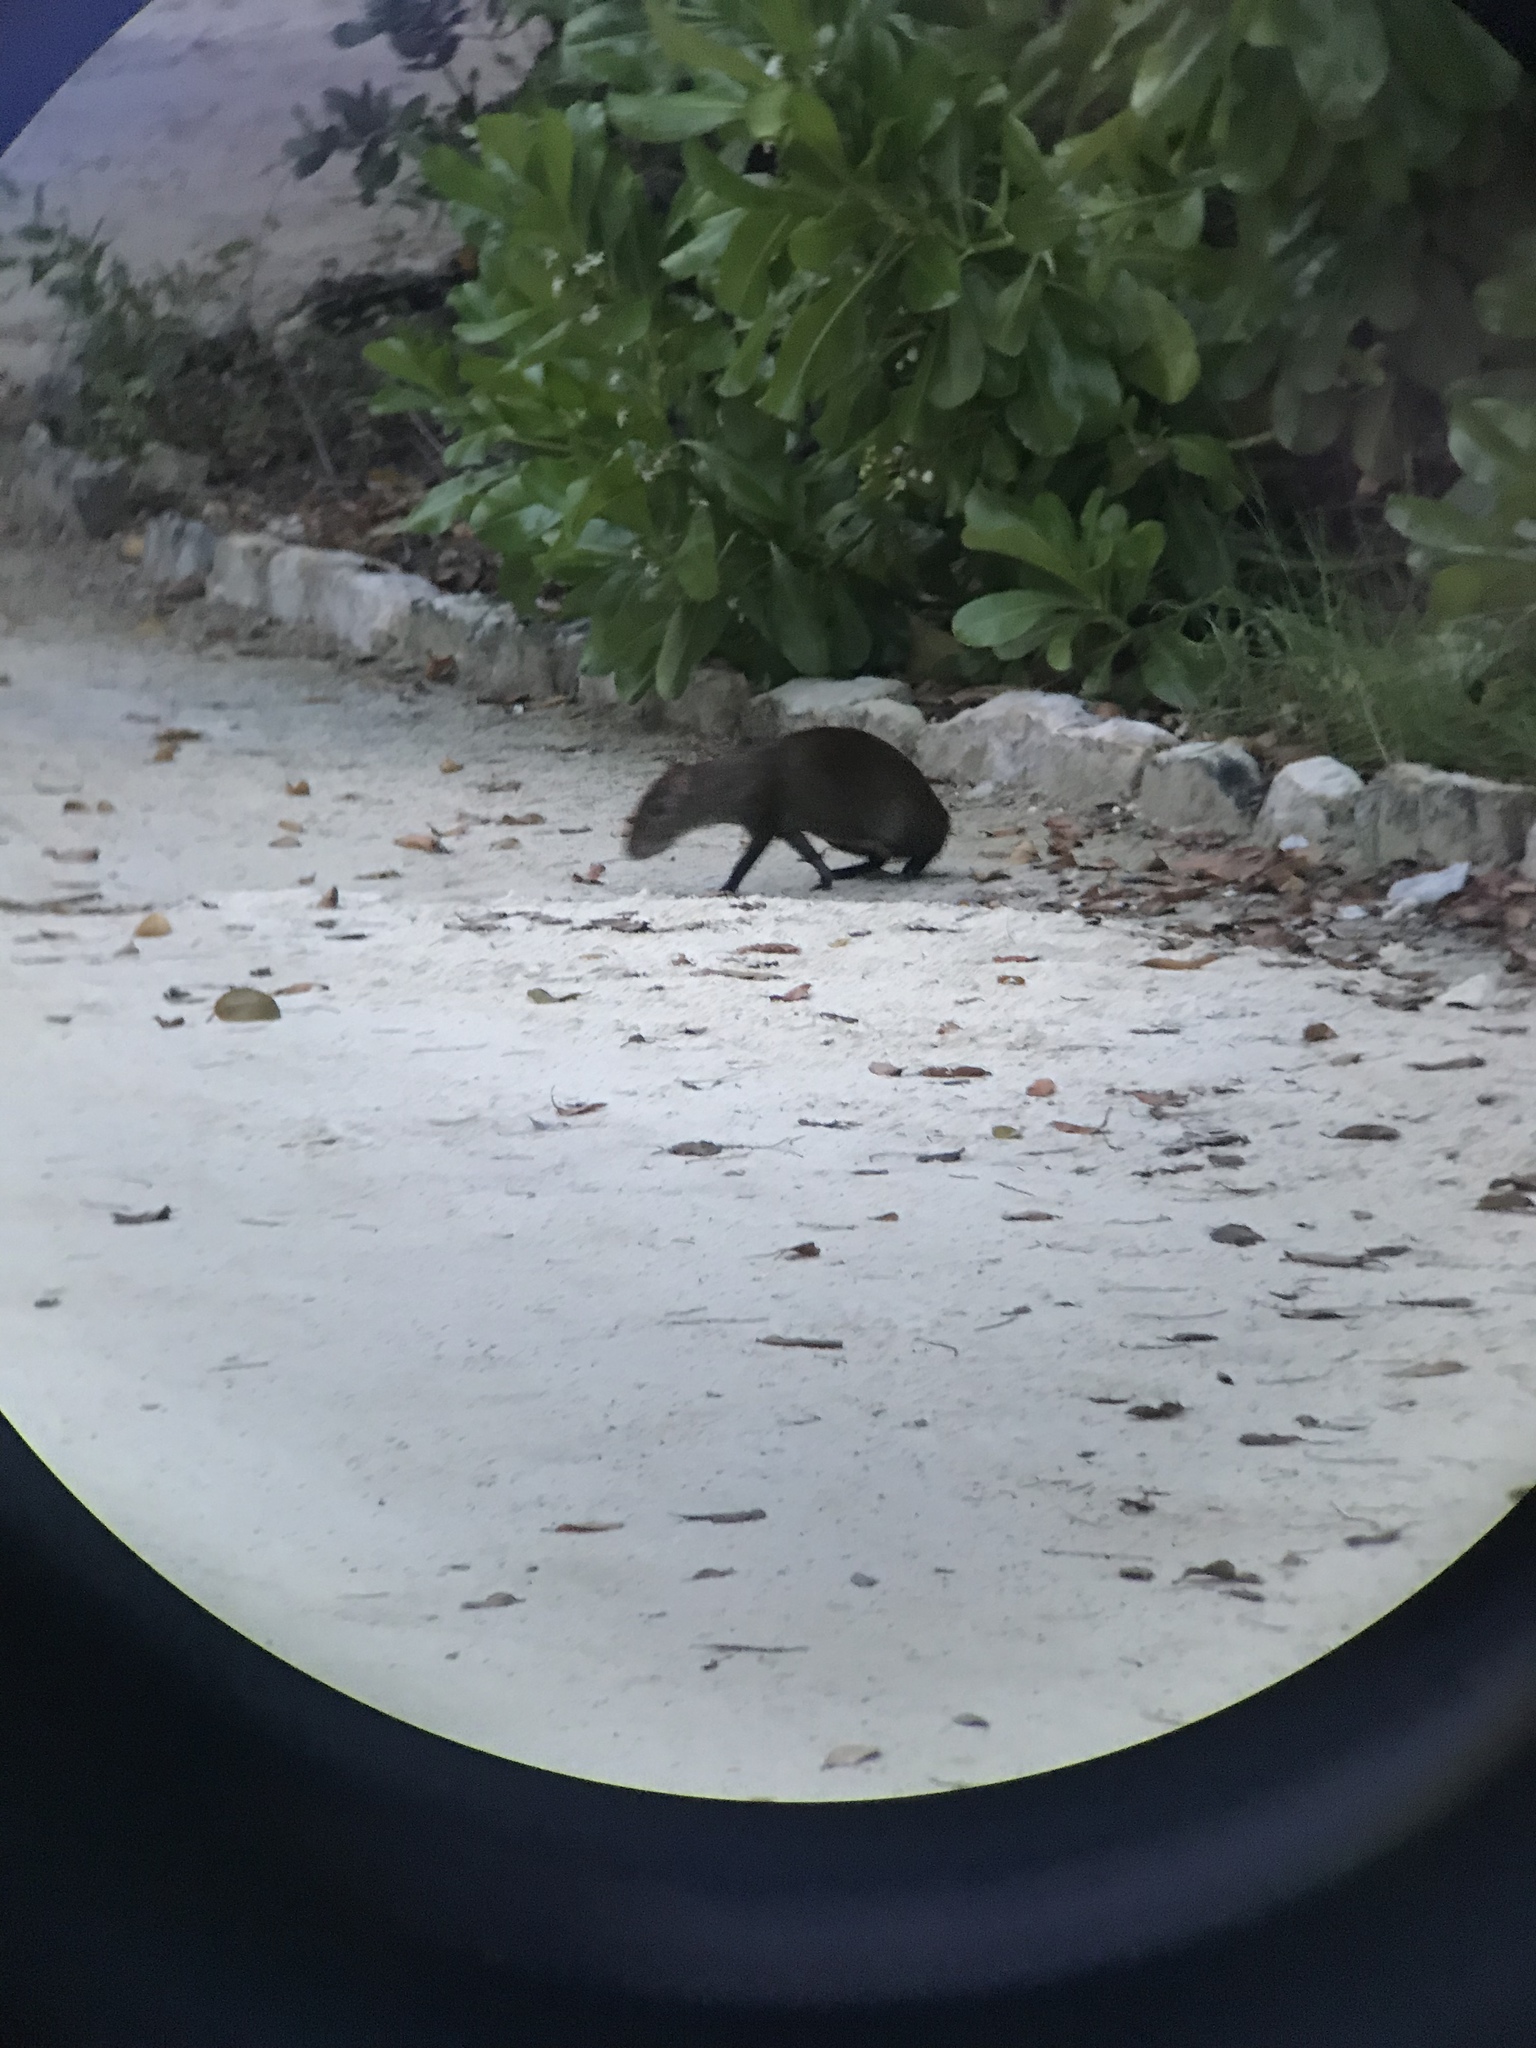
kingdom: Animalia
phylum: Chordata
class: Mammalia
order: Rodentia
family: Dasyproctidae
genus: Dasyprocta
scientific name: Dasyprocta punctata
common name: Central american agouti
